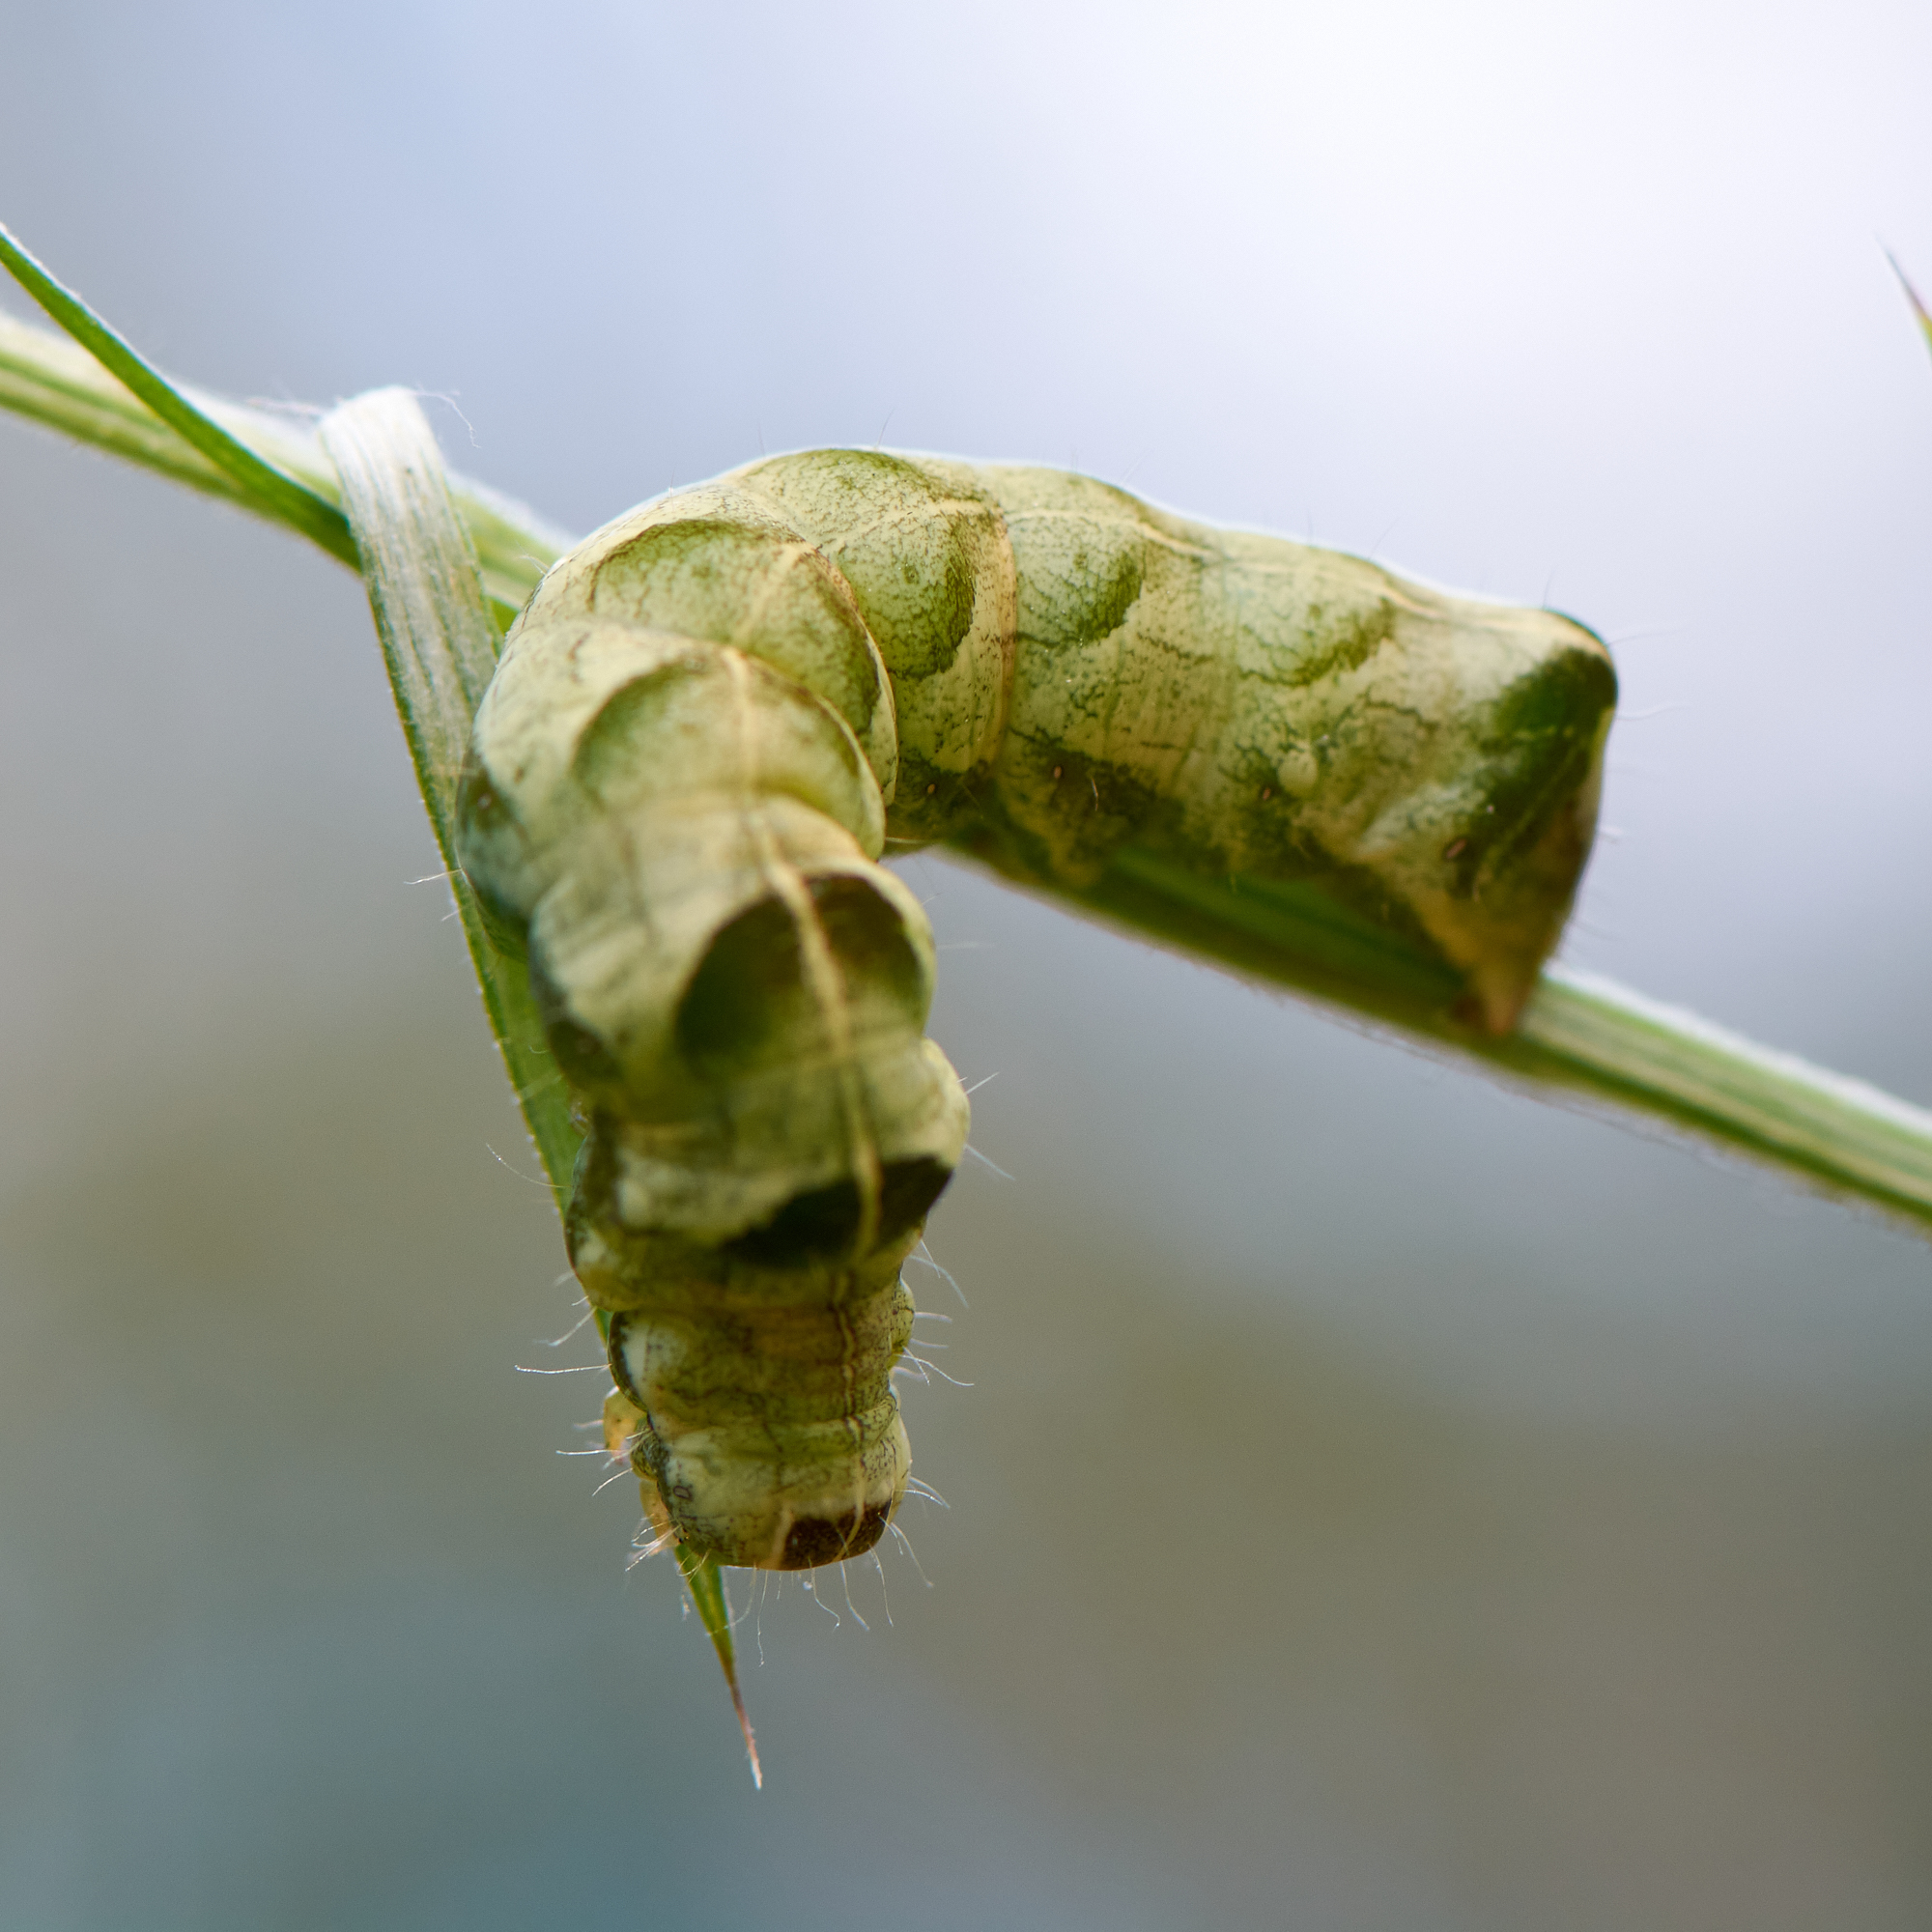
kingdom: Animalia
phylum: Arthropoda
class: Insecta
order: Lepidoptera
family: Noctuidae
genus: Melanchra
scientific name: Melanchra persicariae
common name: Dot moth
